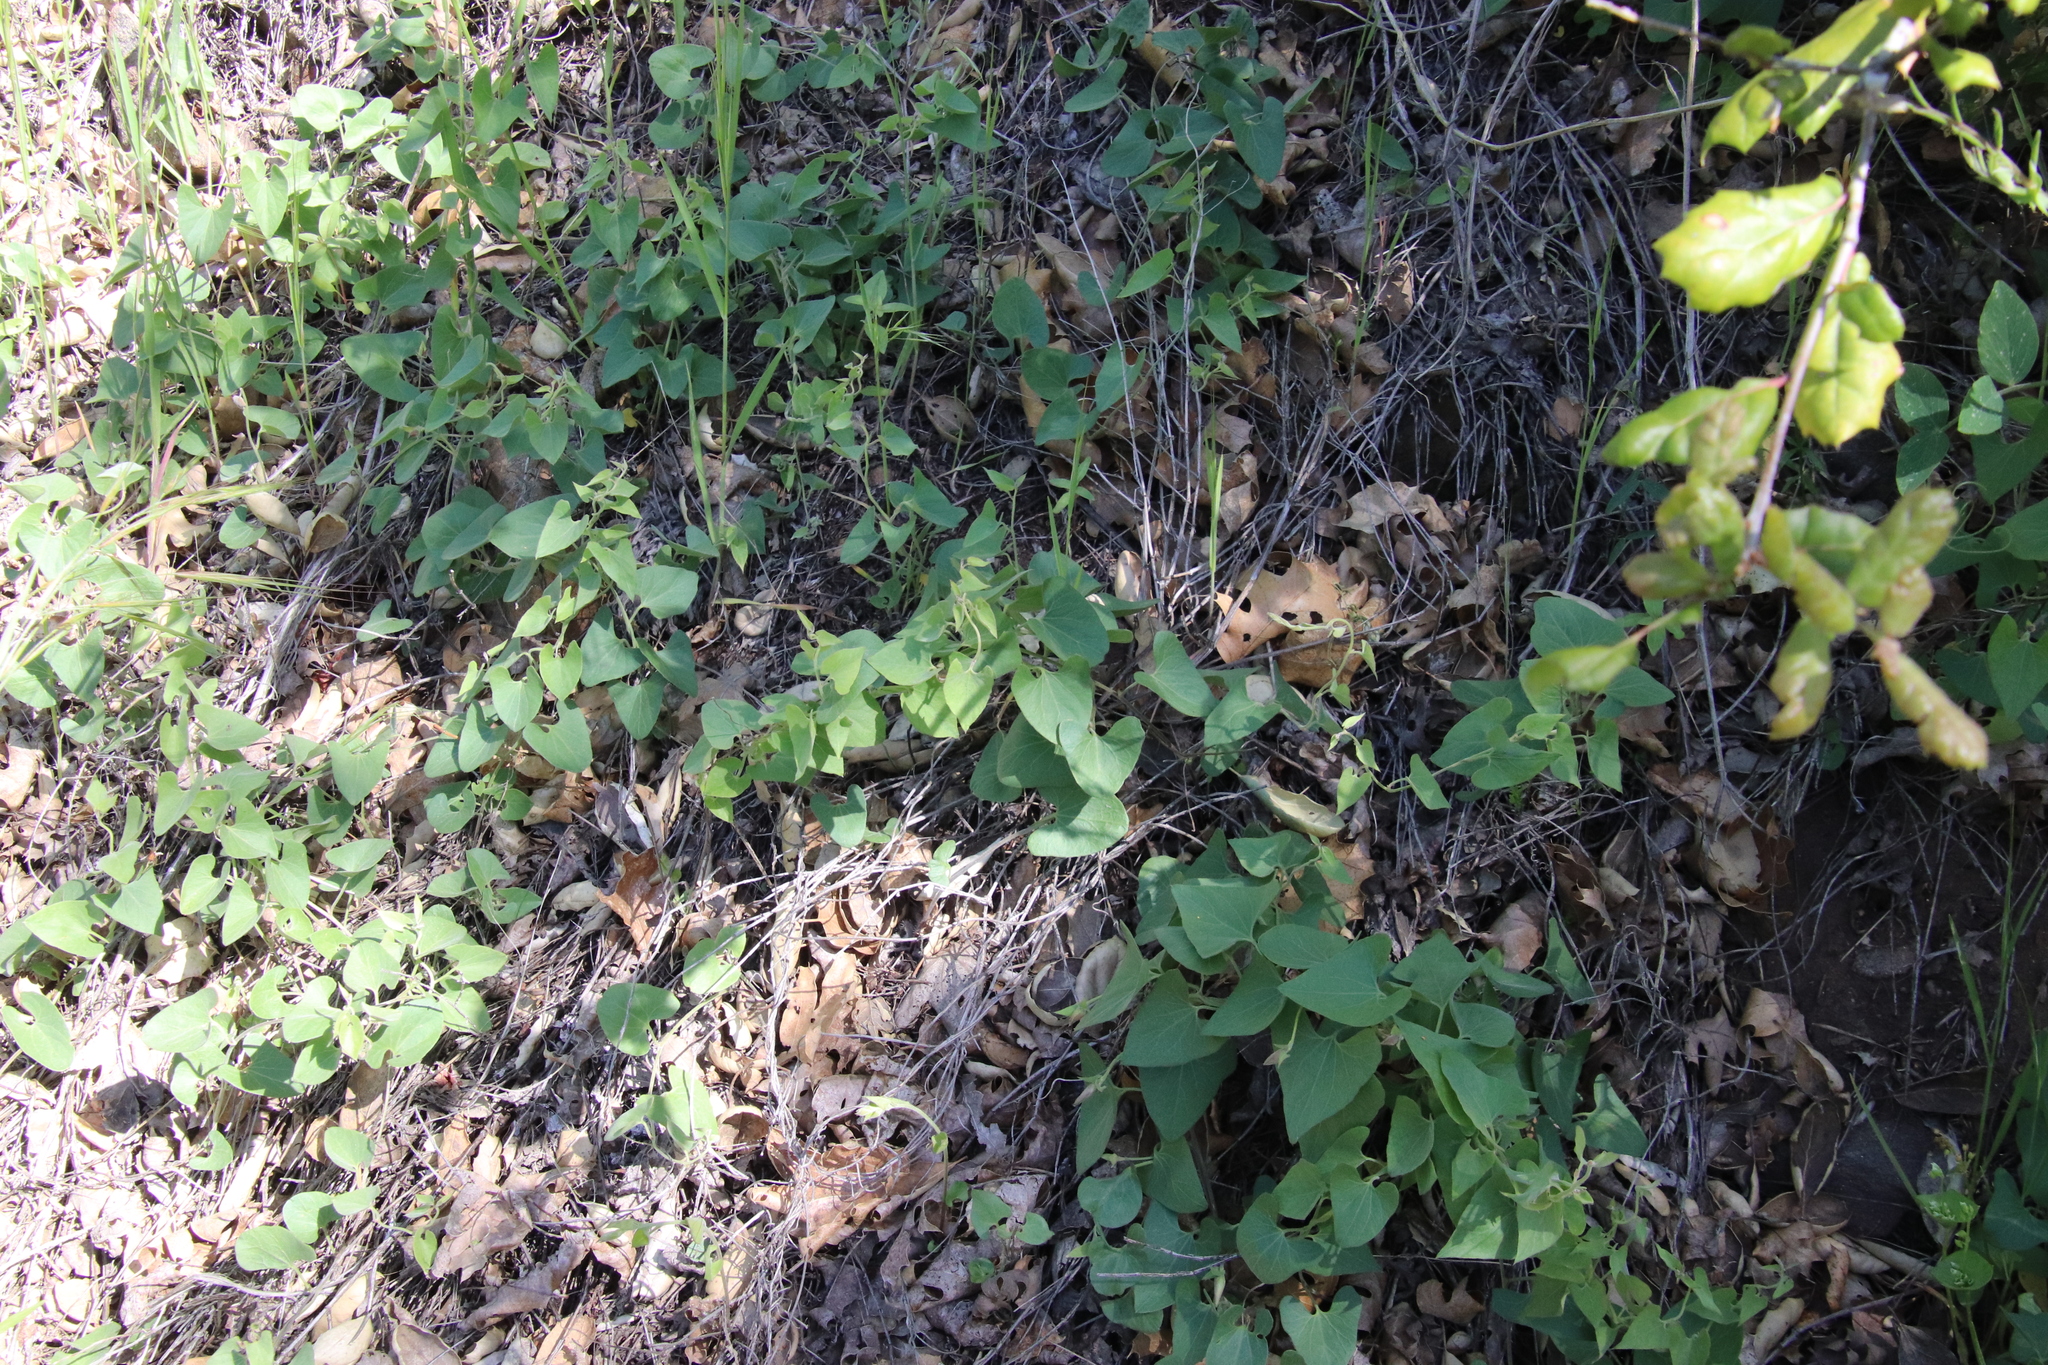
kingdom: Plantae
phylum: Tracheophyta
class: Magnoliopsida
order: Solanales
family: Convolvulaceae
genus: Calystegia
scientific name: Calystegia occidentalis
